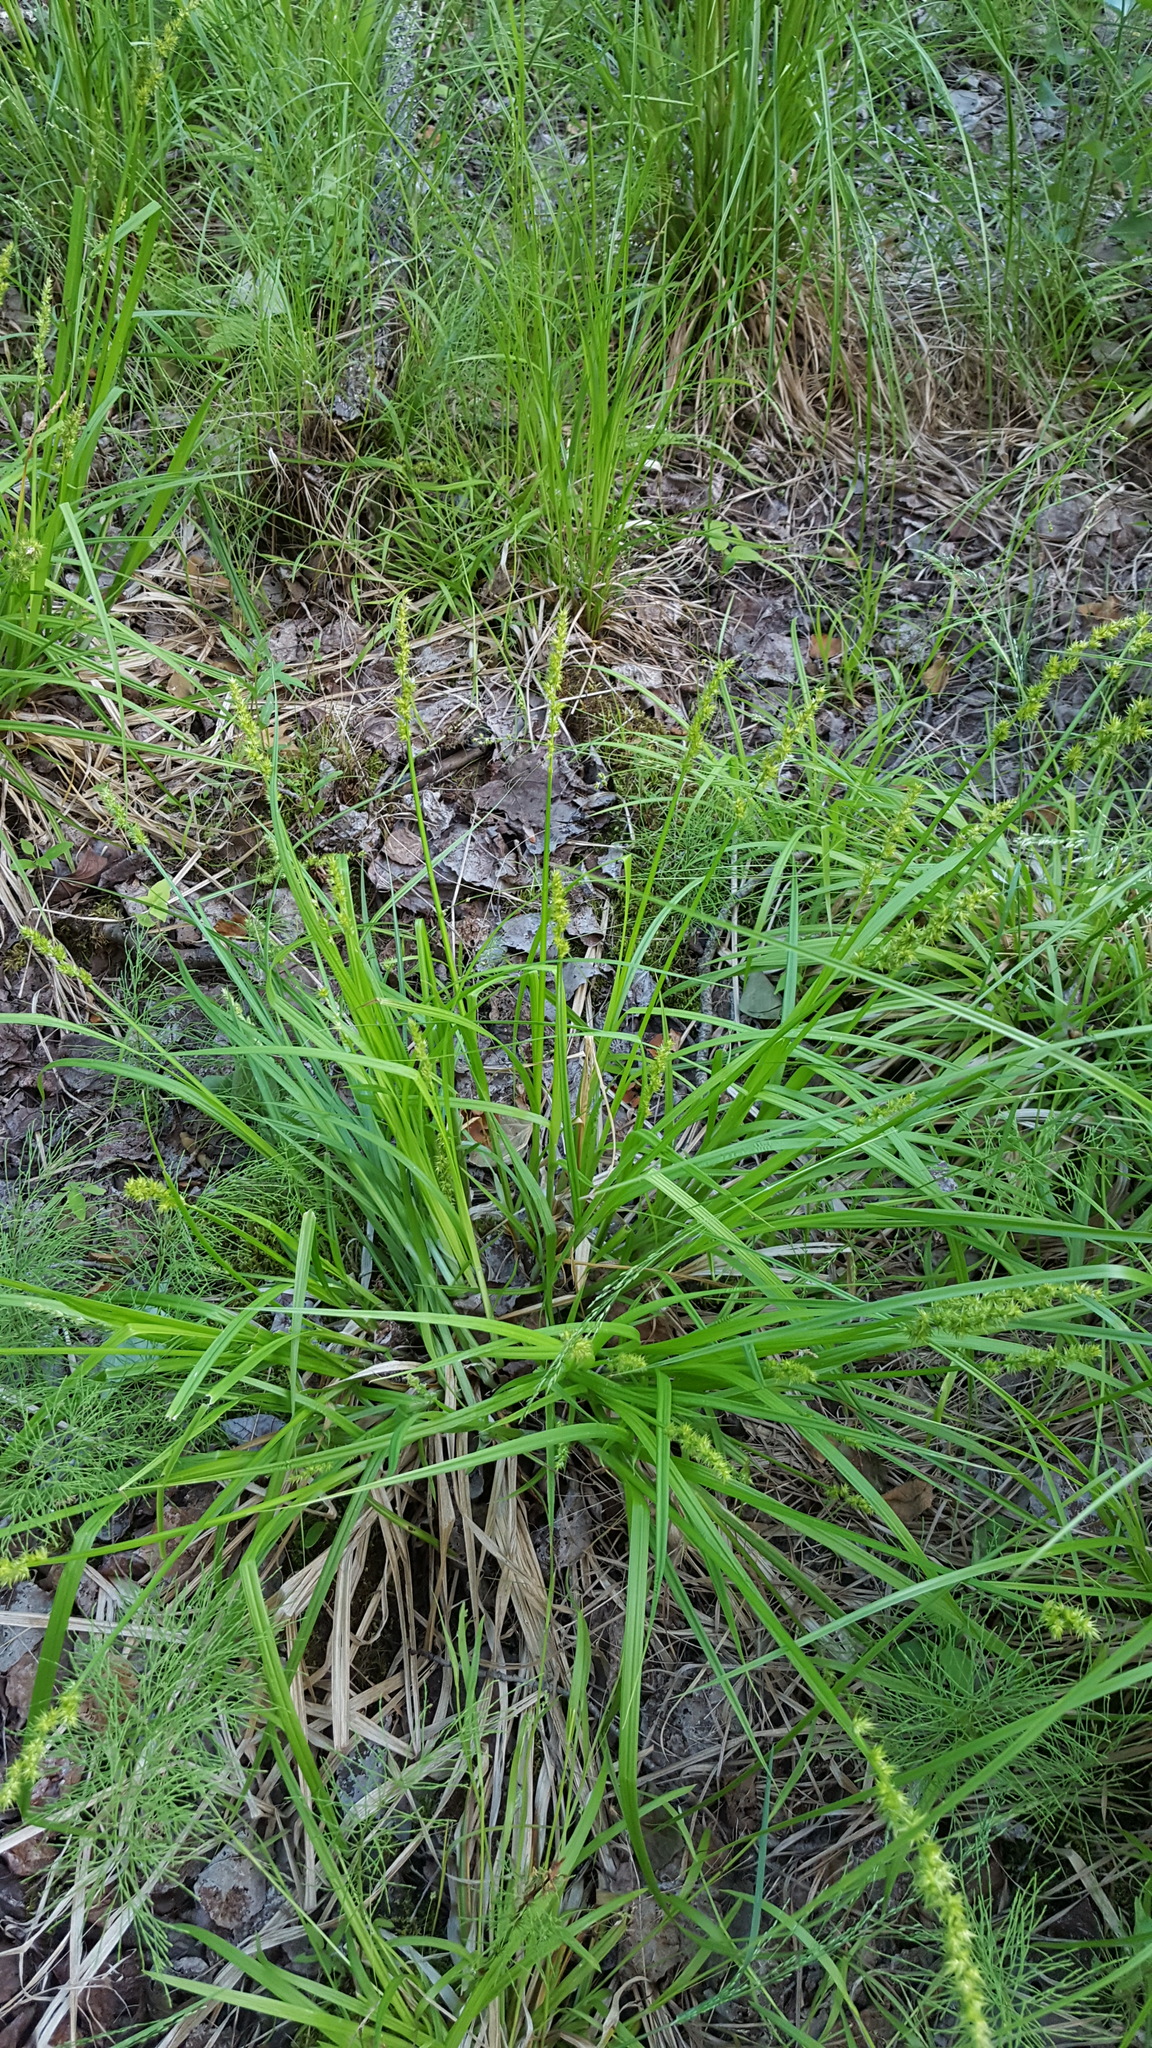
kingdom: Plantae
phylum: Tracheophyta
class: Liliopsida
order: Poales
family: Cyperaceae
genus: Carex
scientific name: Carex stipata
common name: Awl-fruited sedge
